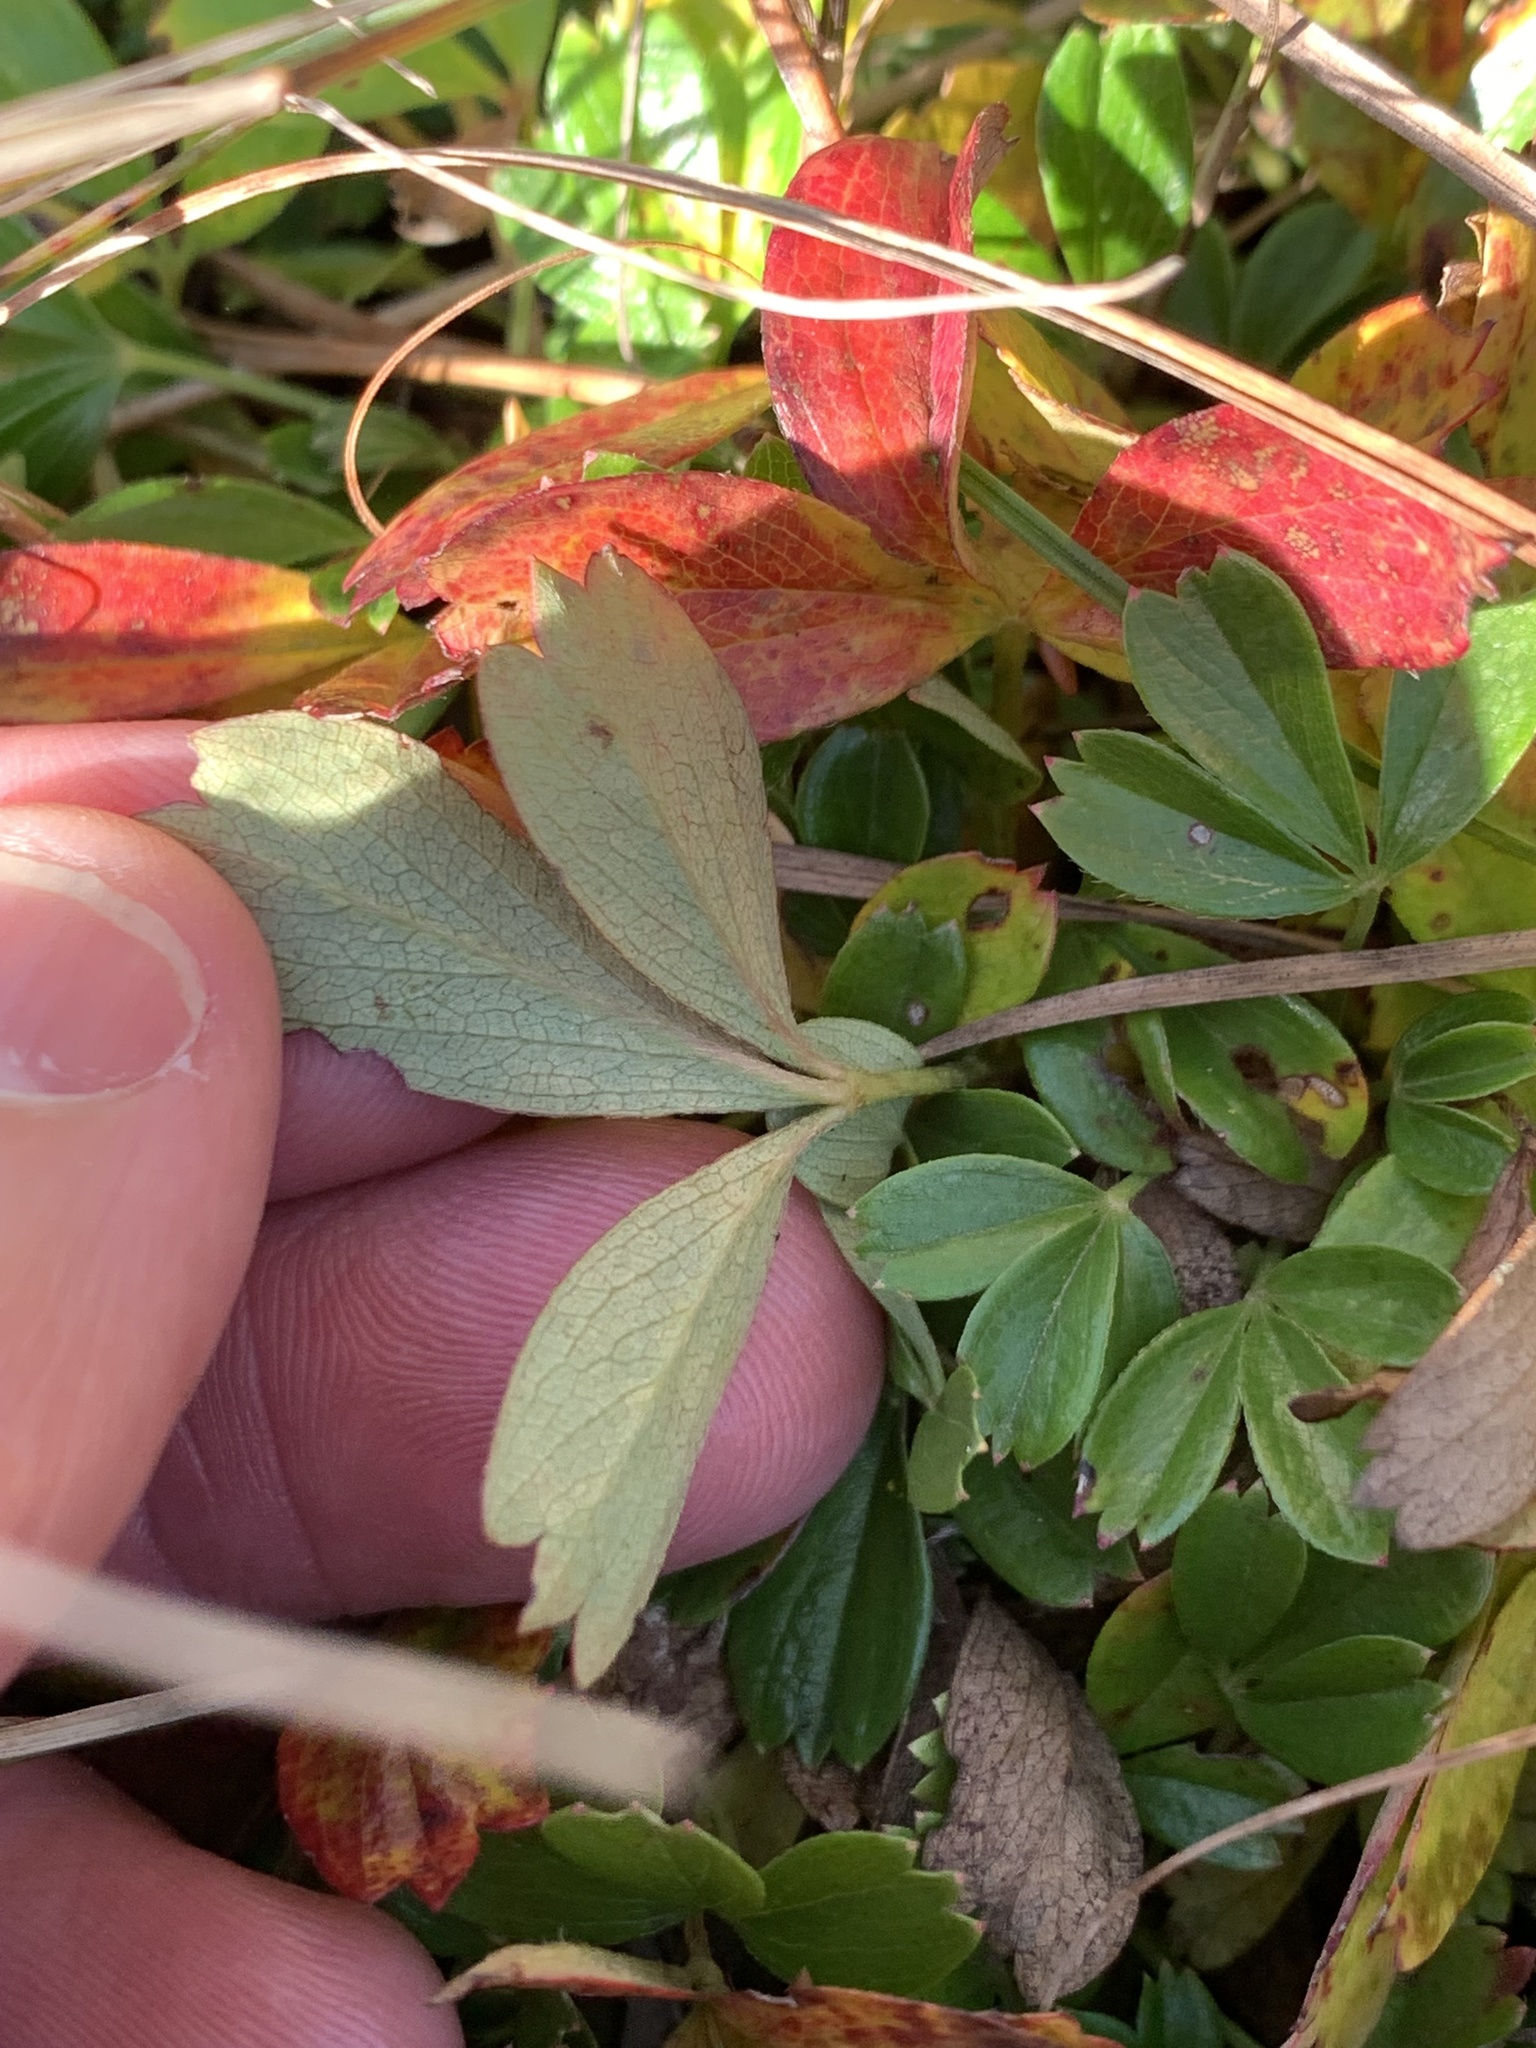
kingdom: Plantae
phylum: Tracheophyta
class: Magnoliopsida
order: Rosales
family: Rosaceae
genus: Sibbaldia
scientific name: Sibbaldia tridentata
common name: Three-toothed cinquefoil
